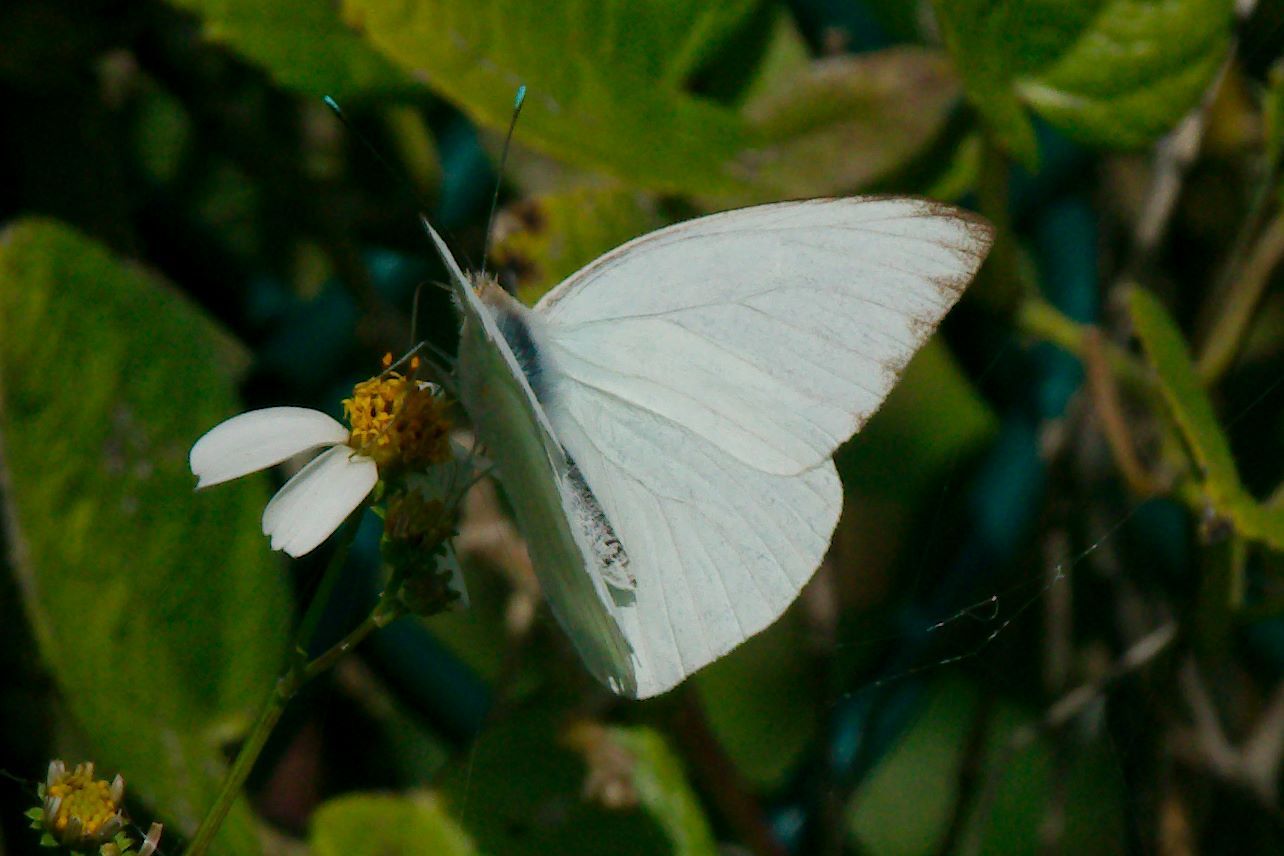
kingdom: Animalia
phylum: Arthropoda
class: Insecta
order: Lepidoptera
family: Pieridae
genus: Ascia
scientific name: Ascia monuste
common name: Great southern white
